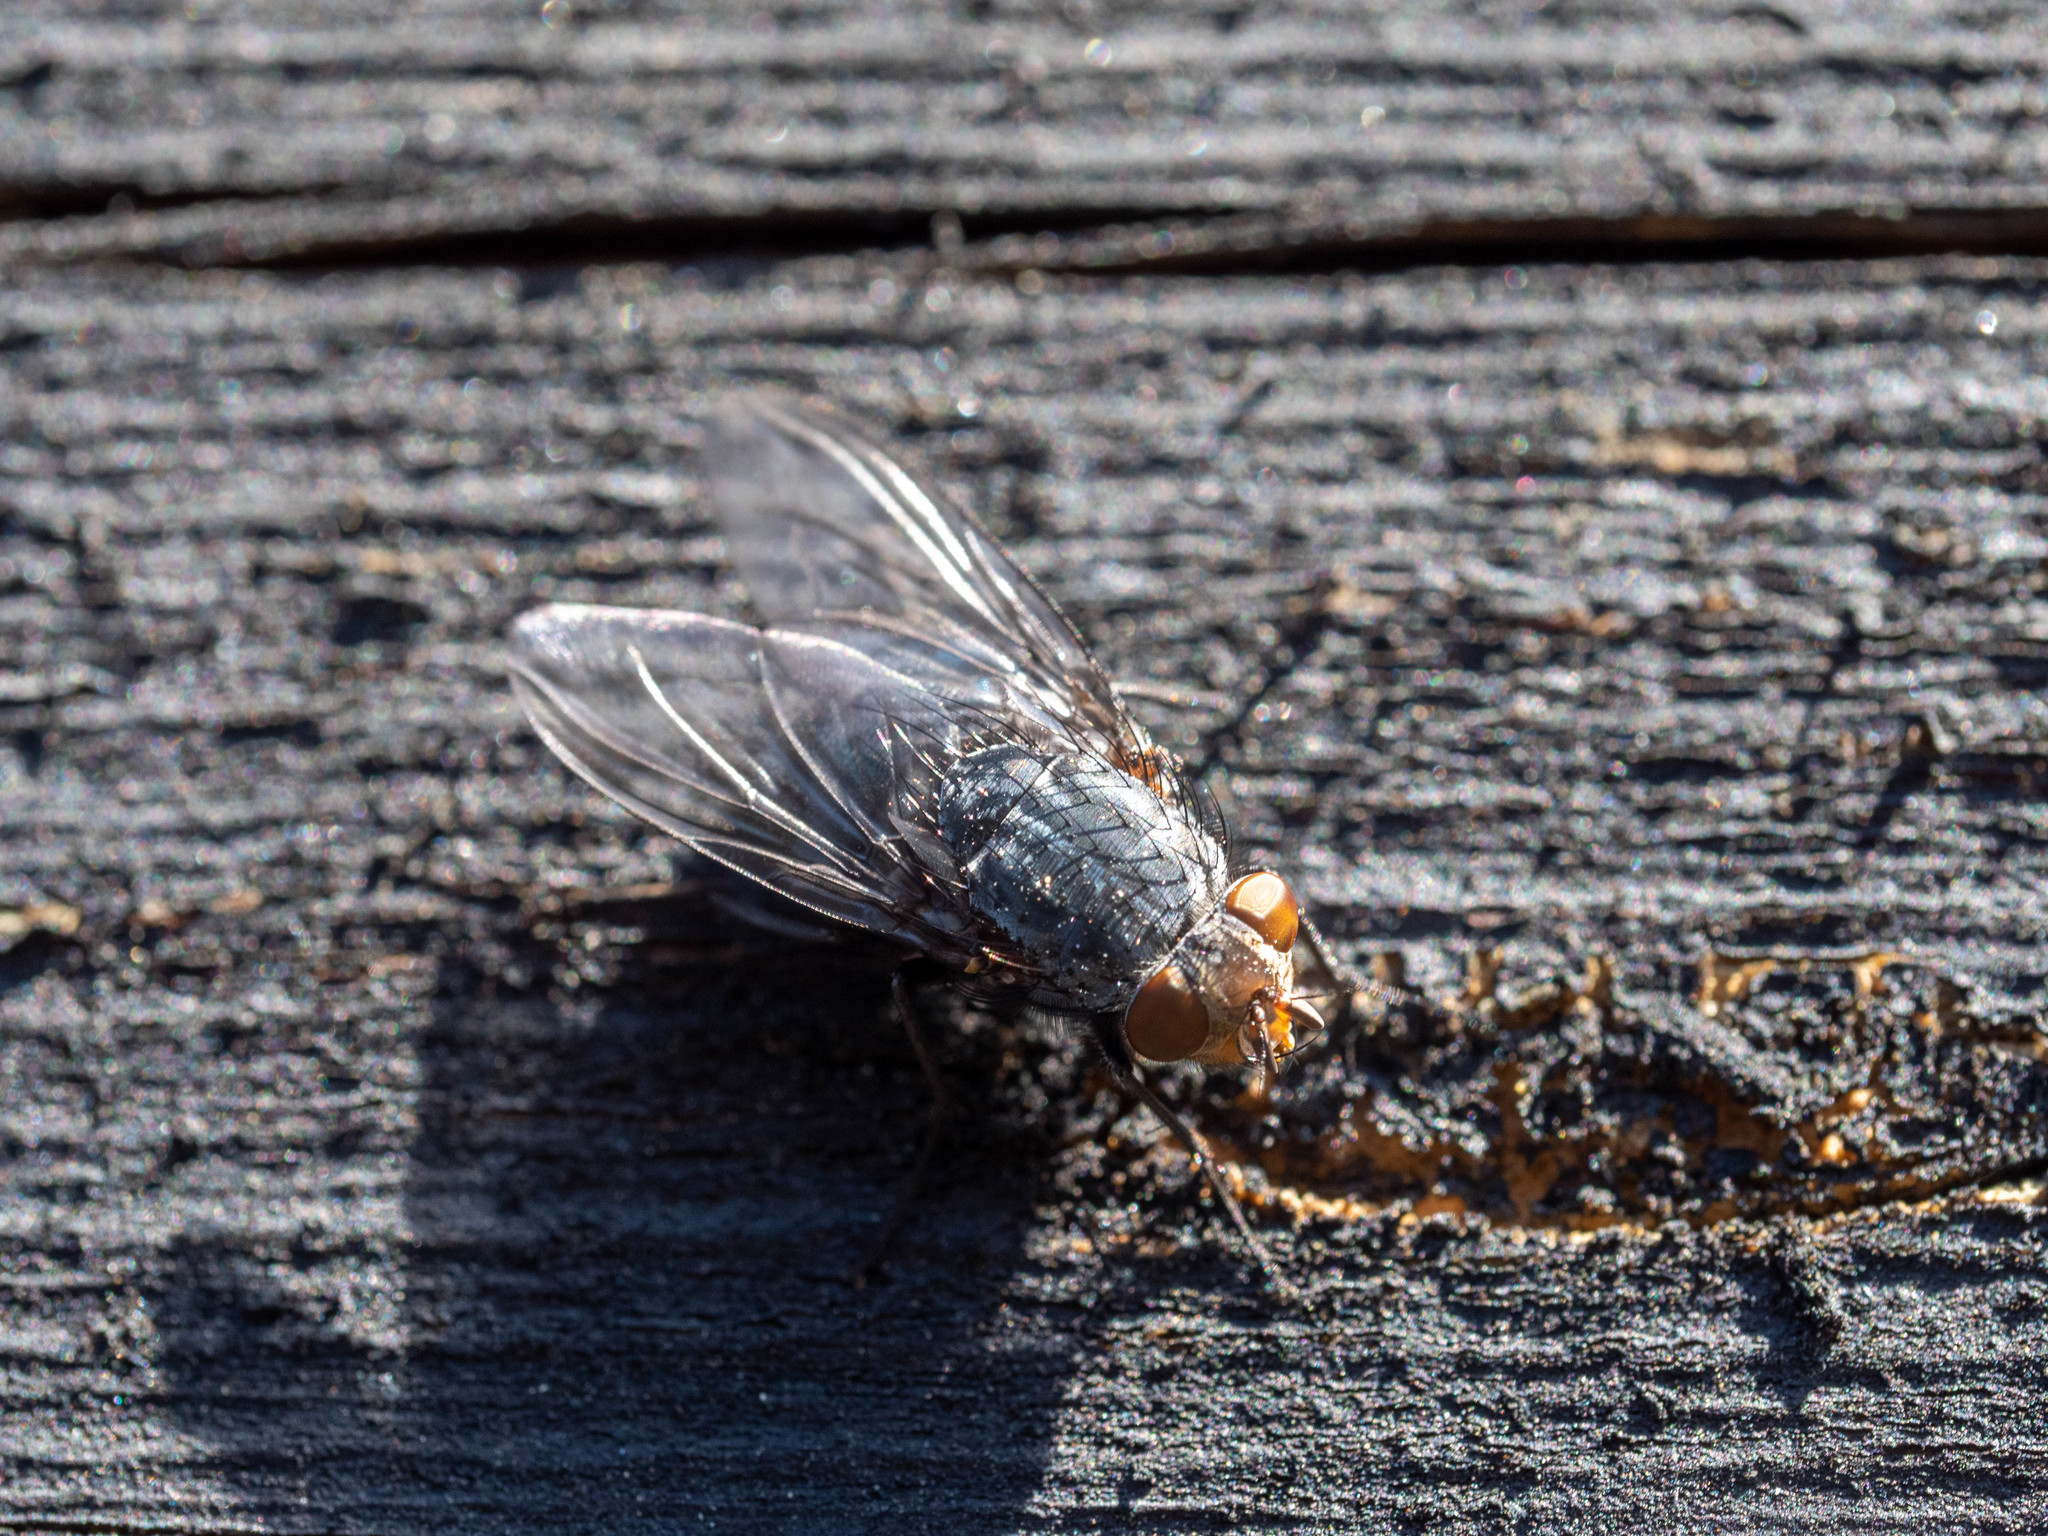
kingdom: Animalia
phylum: Arthropoda
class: Insecta
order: Diptera
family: Calliphoridae
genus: Calliphora
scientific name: Calliphora vicina
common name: Common blow flie
